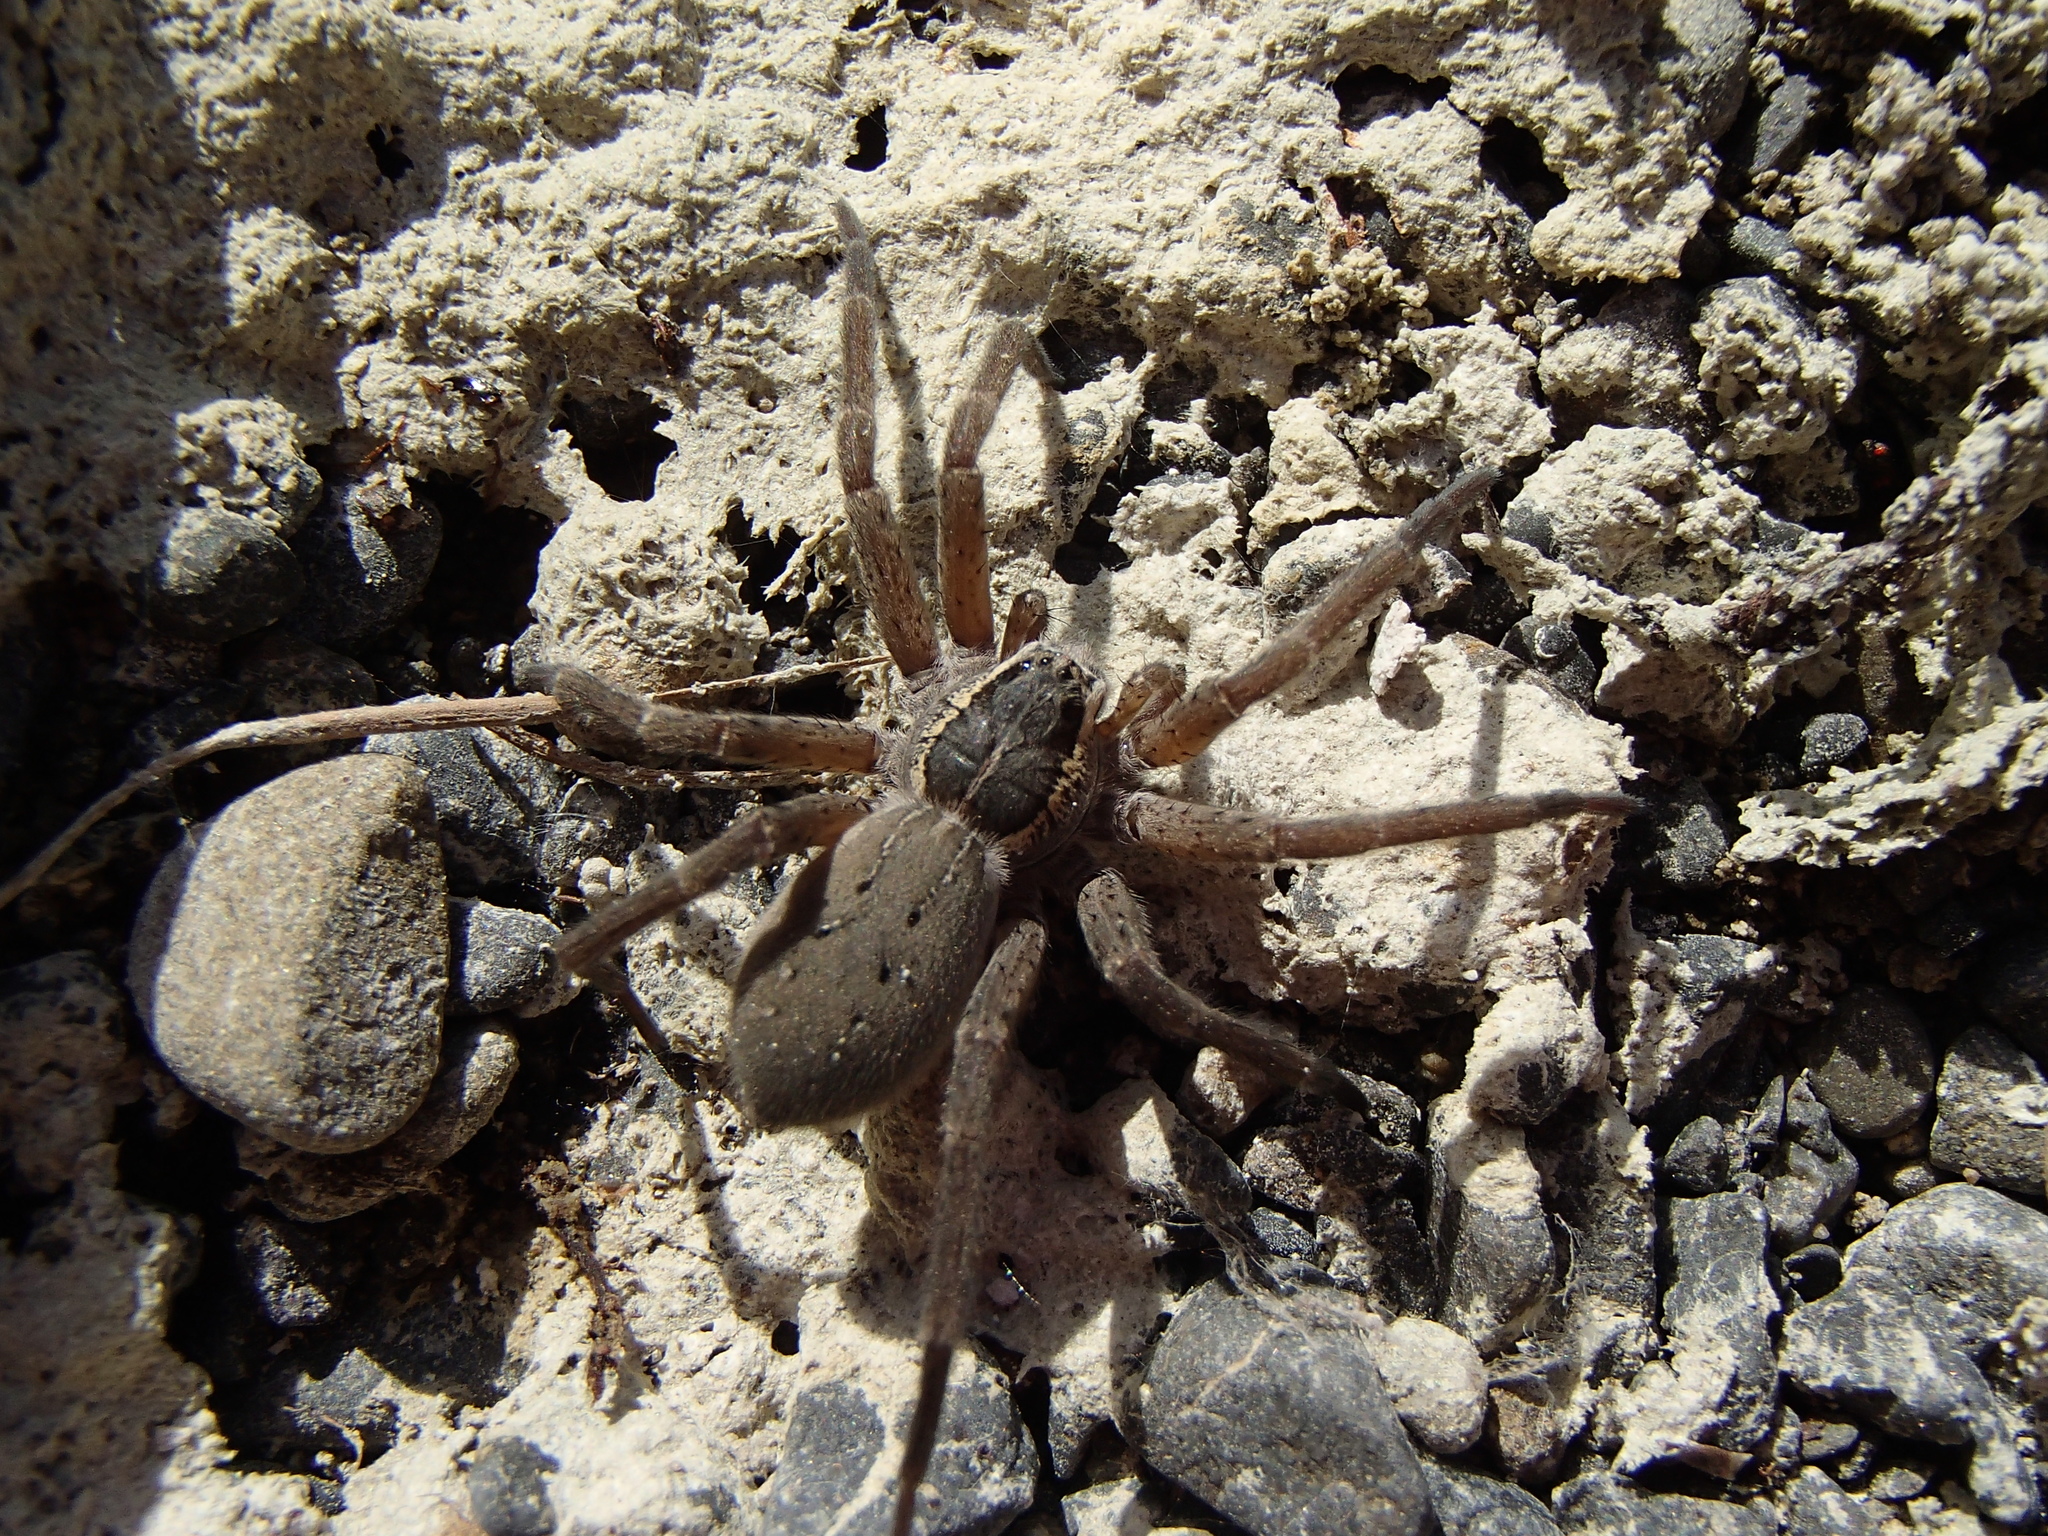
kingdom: Animalia
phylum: Arthropoda
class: Arachnida
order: Araneae
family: Pisauridae
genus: Dolomedes
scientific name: Dolomedes aquaticus
